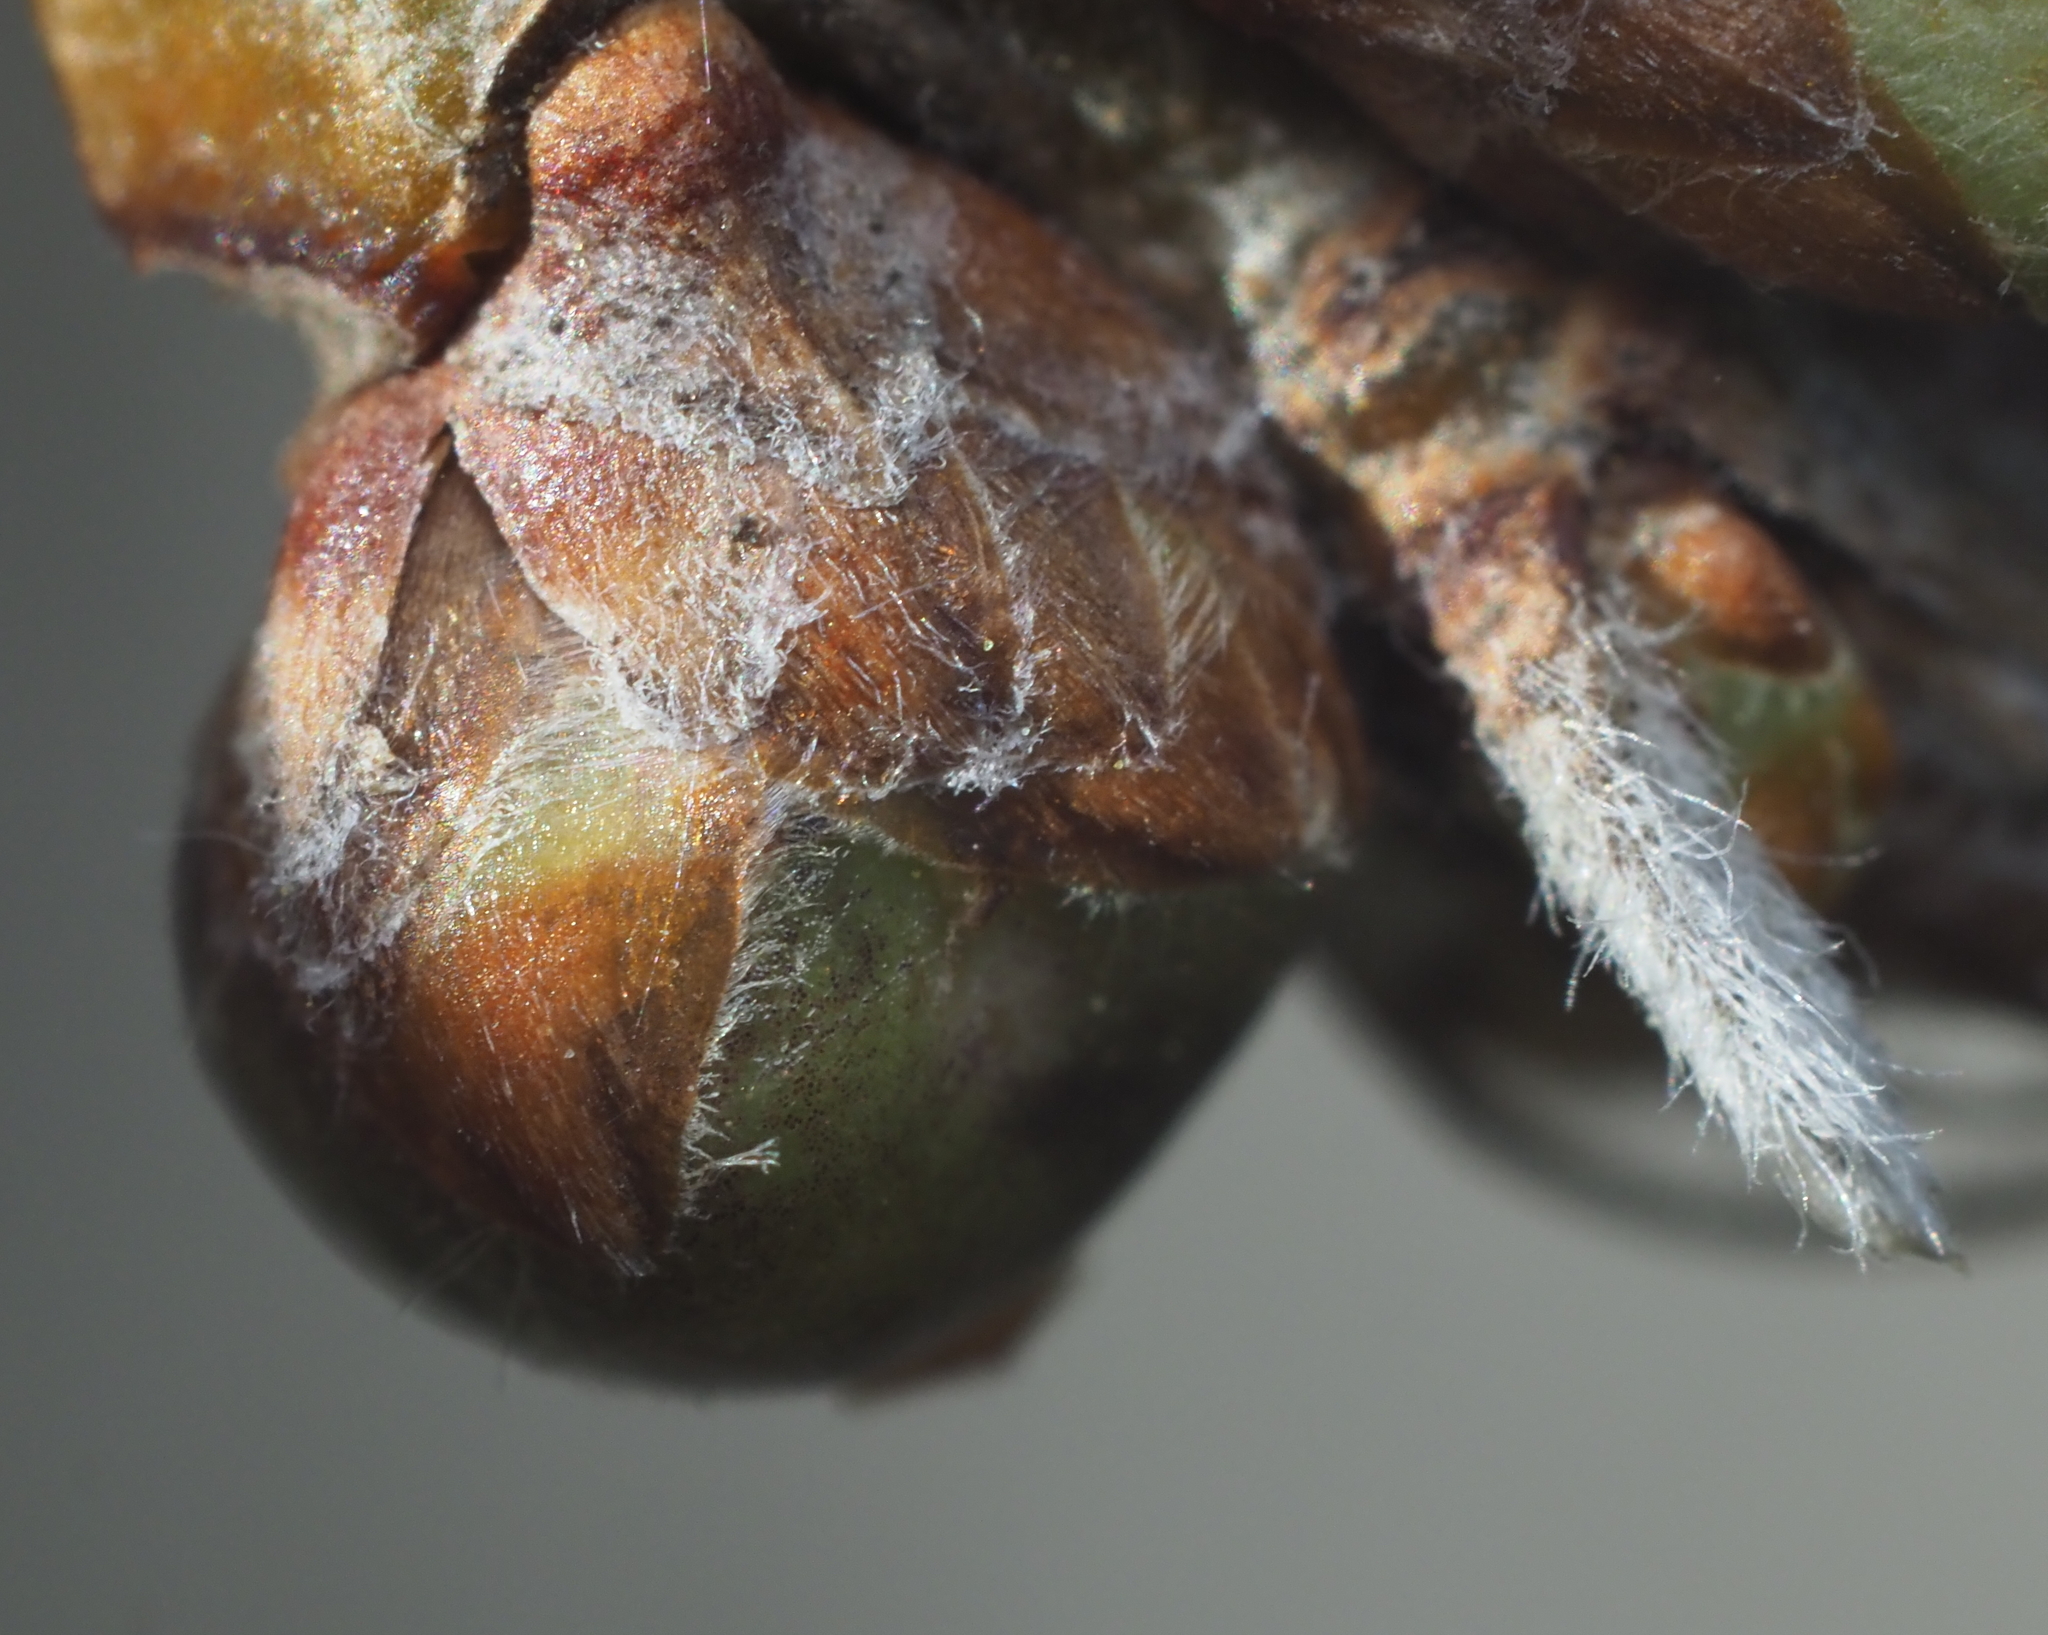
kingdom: Animalia
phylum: Arthropoda
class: Insecta
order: Hymenoptera
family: Cynipidae
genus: Neuroterus
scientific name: Neuroterus
